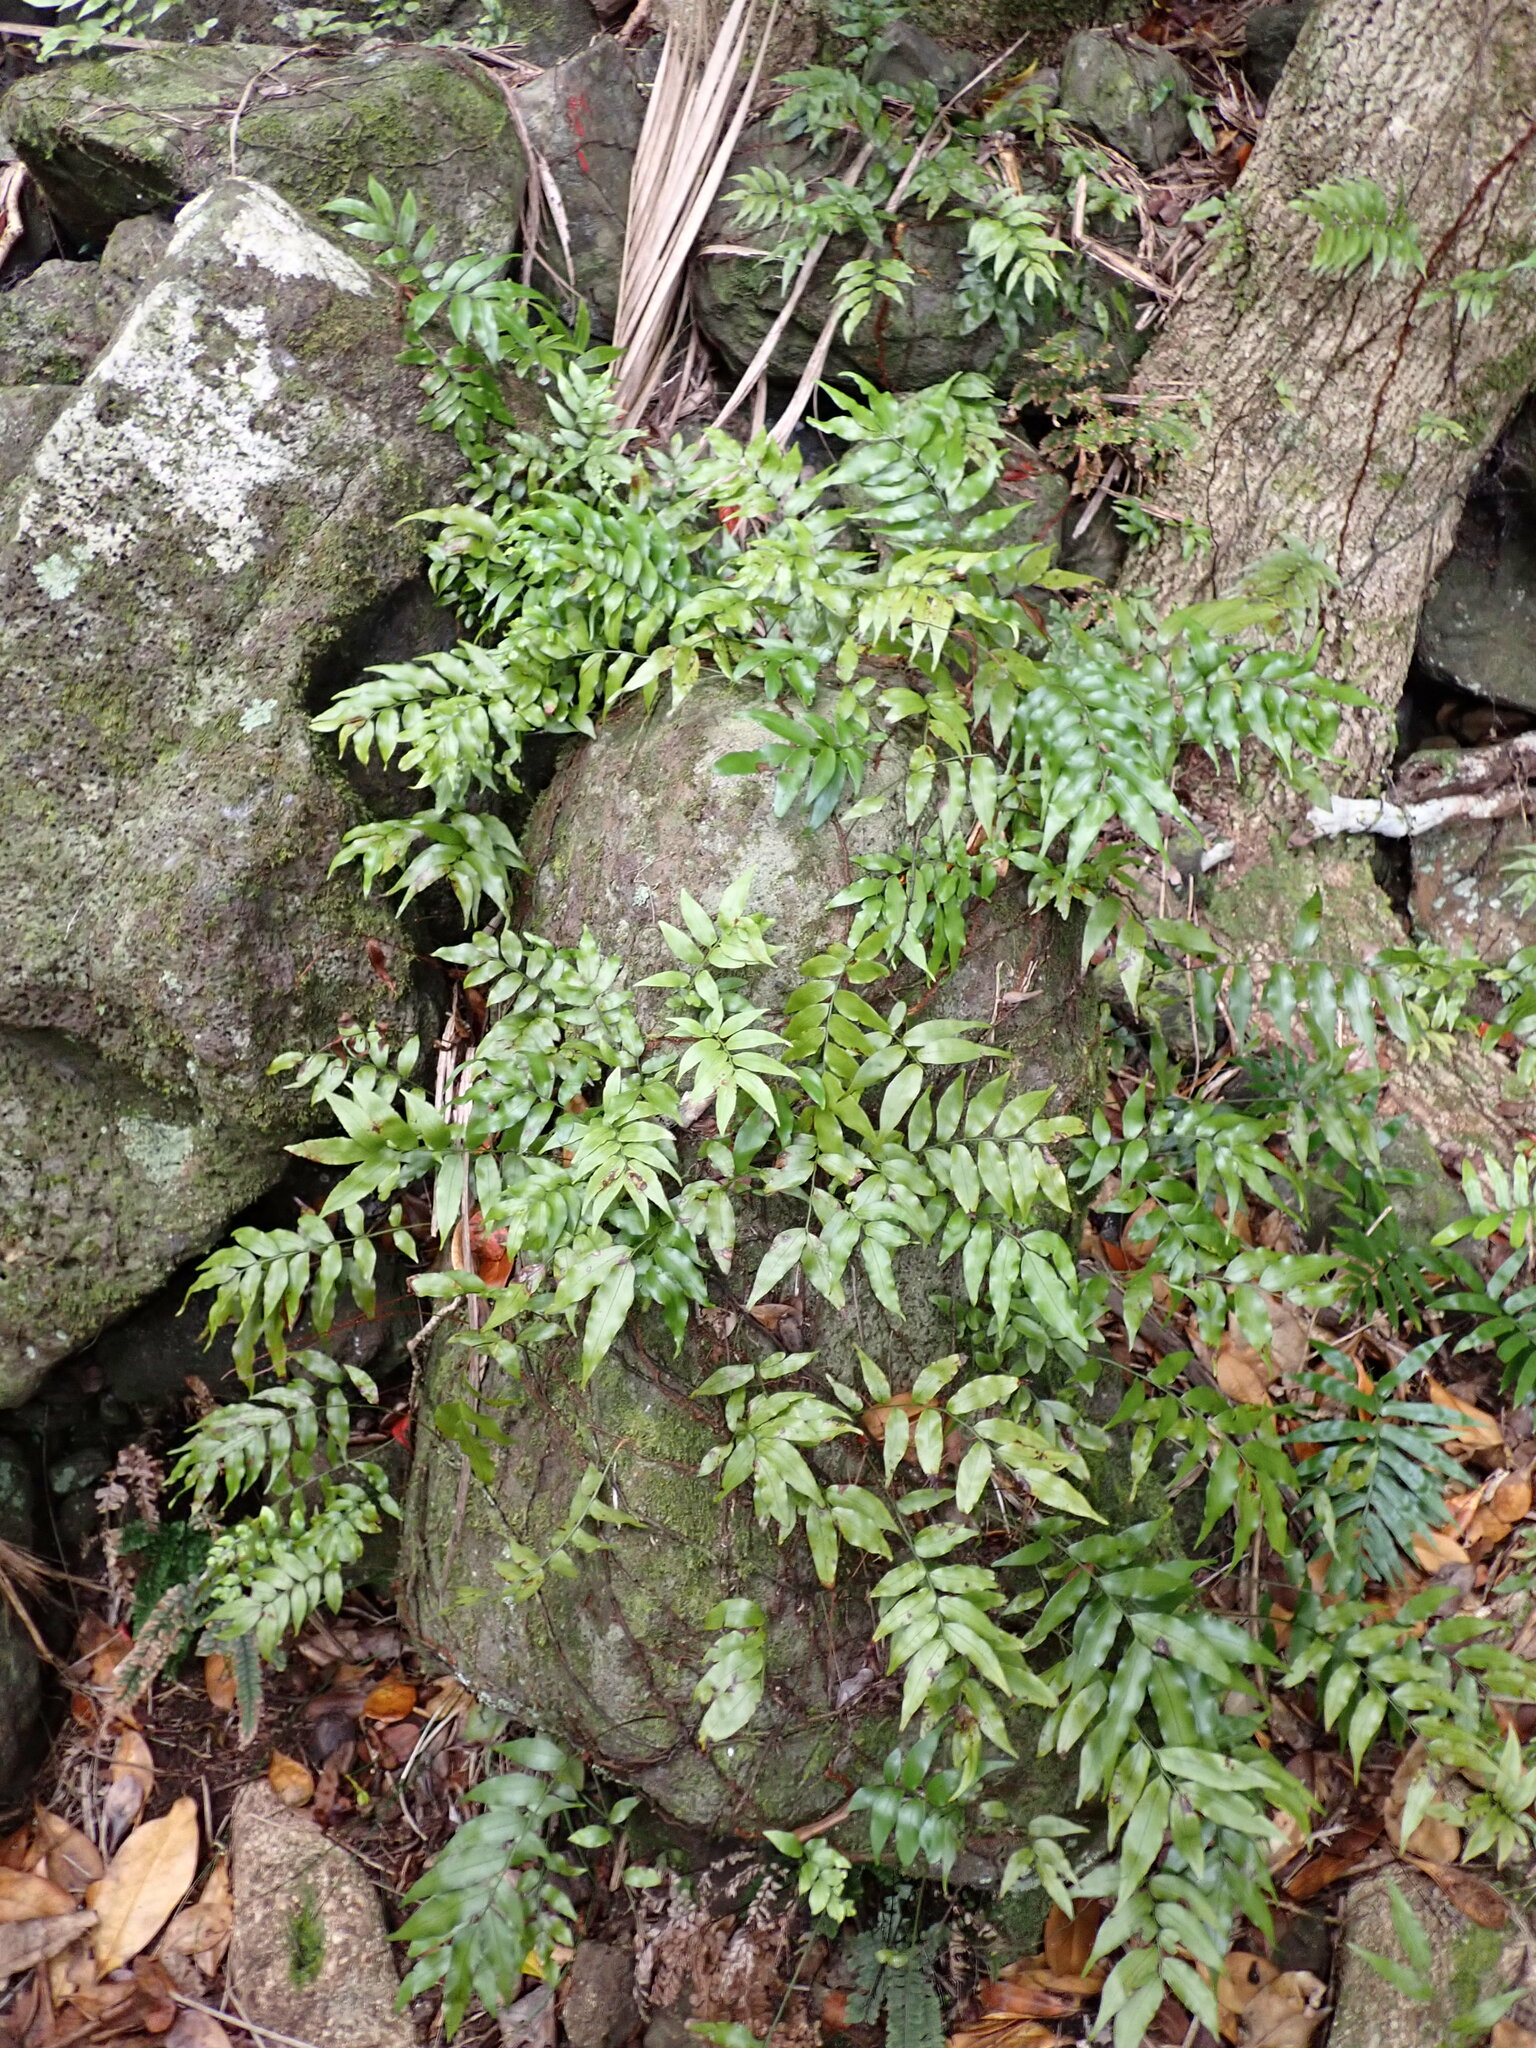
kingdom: Plantae
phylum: Tracheophyta
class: Polypodiopsida
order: Polypodiales
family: Tectariaceae
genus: Arthropteris
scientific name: Arthropteris tenella
